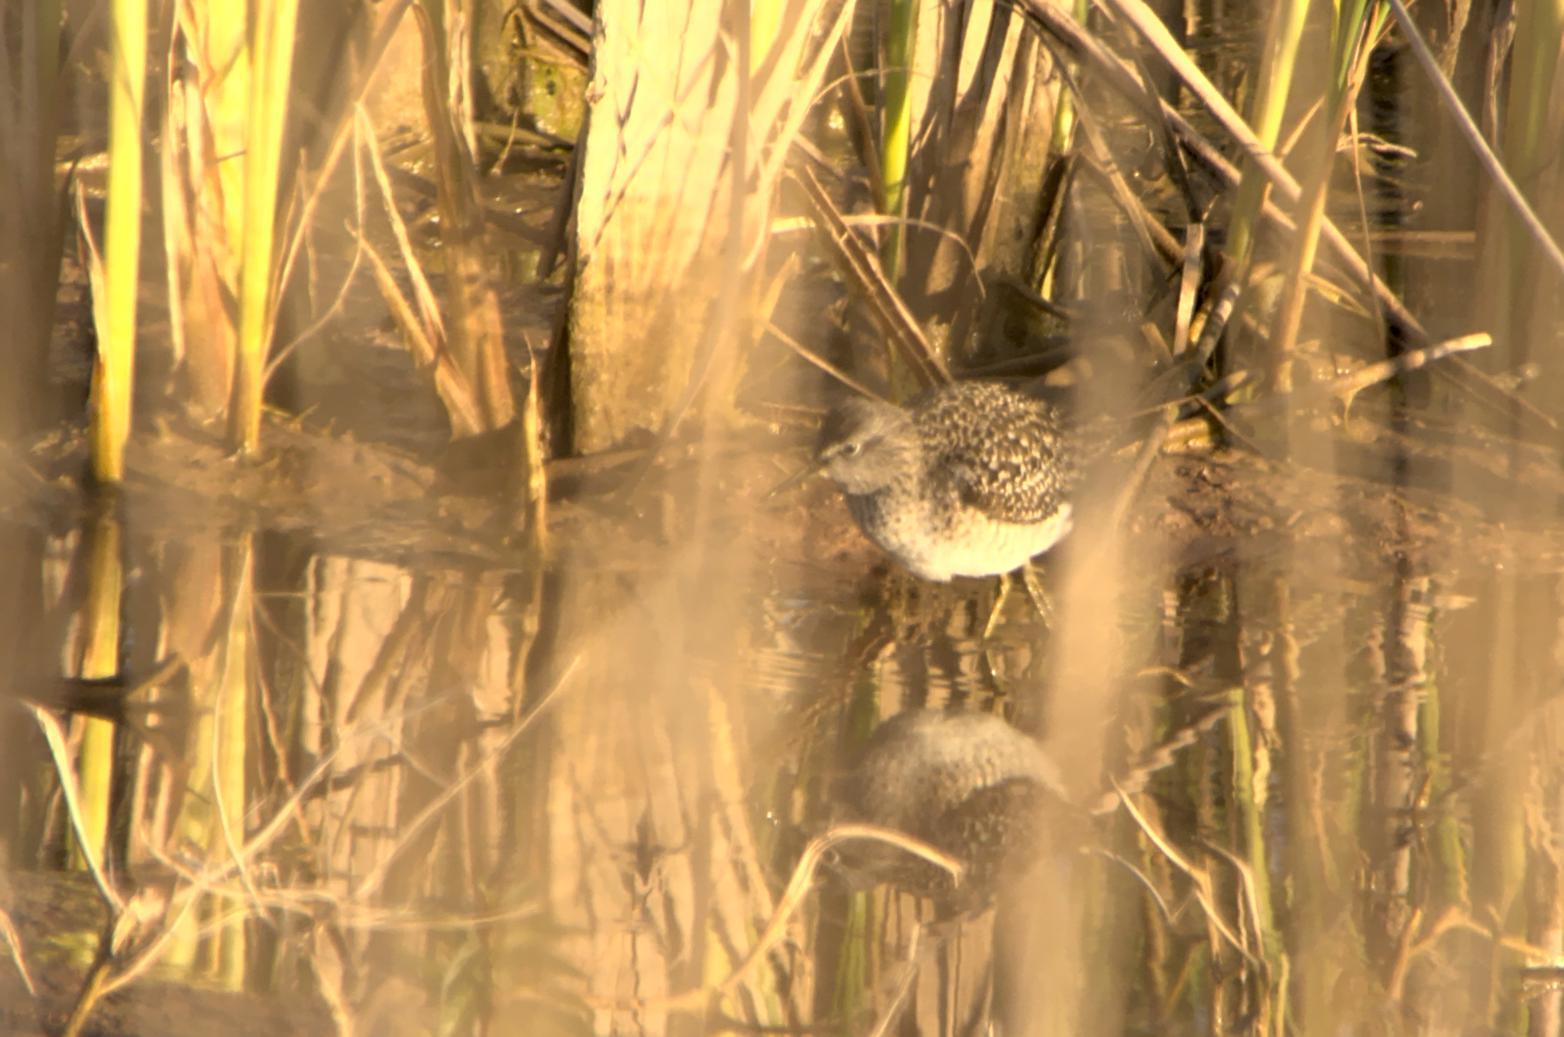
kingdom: Animalia
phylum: Chordata
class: Aves
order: Charadriiformes
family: Scolopacidae
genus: Tringa
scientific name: Tringa glareola
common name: Wood sandpiper
